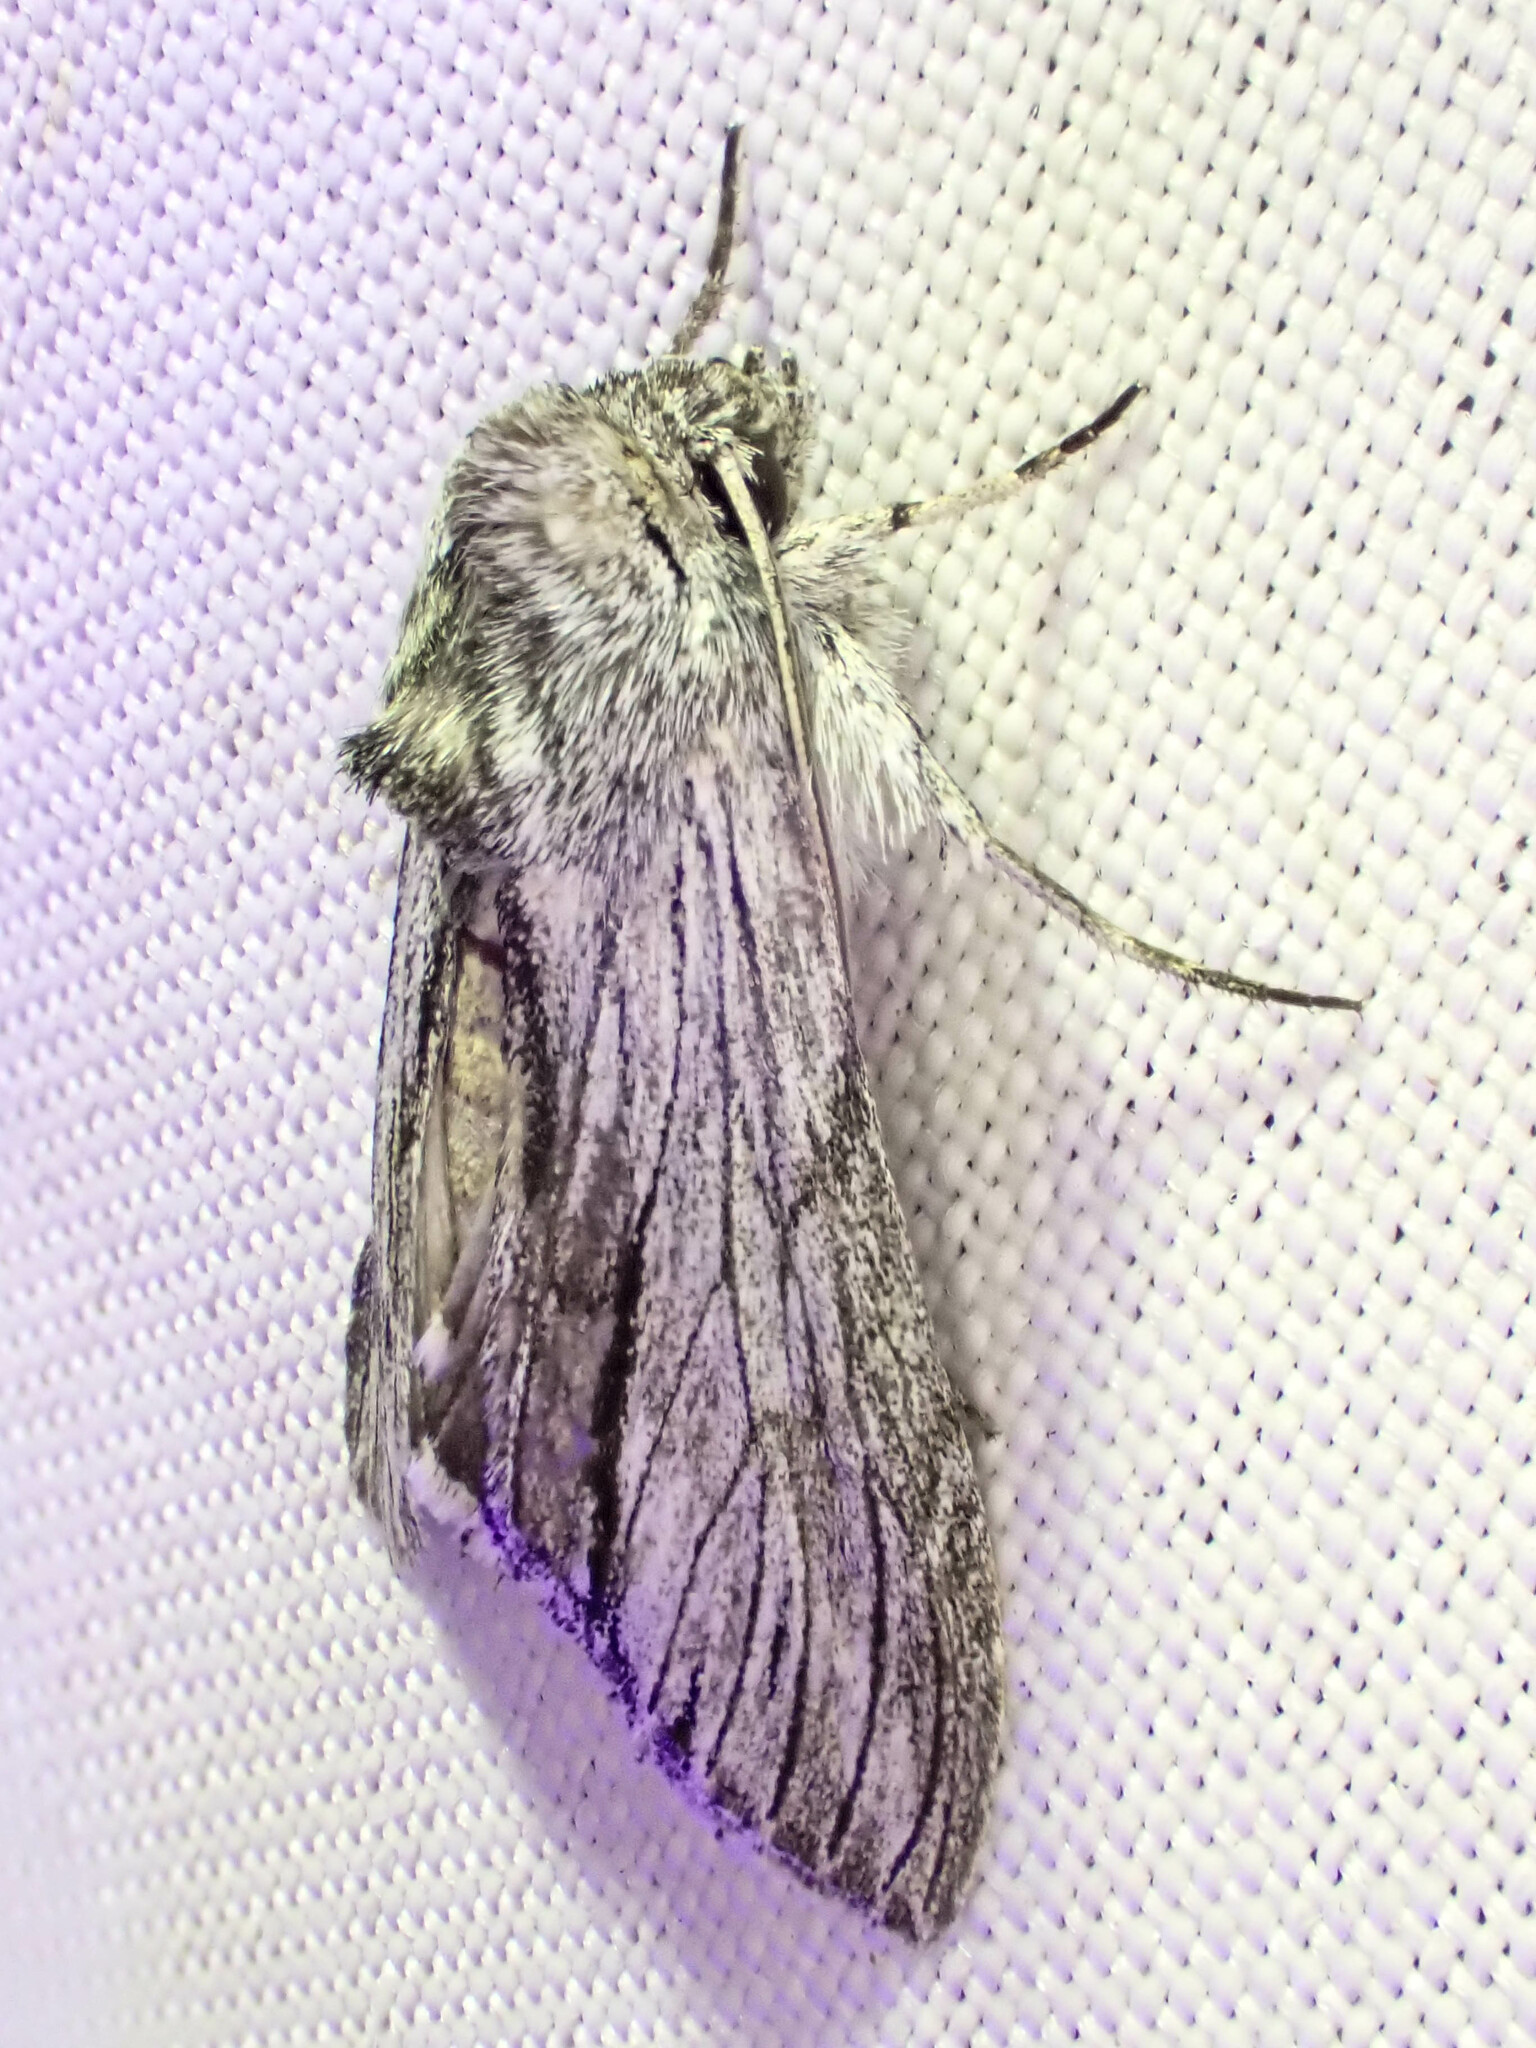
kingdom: Animalia
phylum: Arthropoda
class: Insecta
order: Lepidoptera
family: Noctuidae
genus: Cucullia
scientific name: Cucullia eulepis
